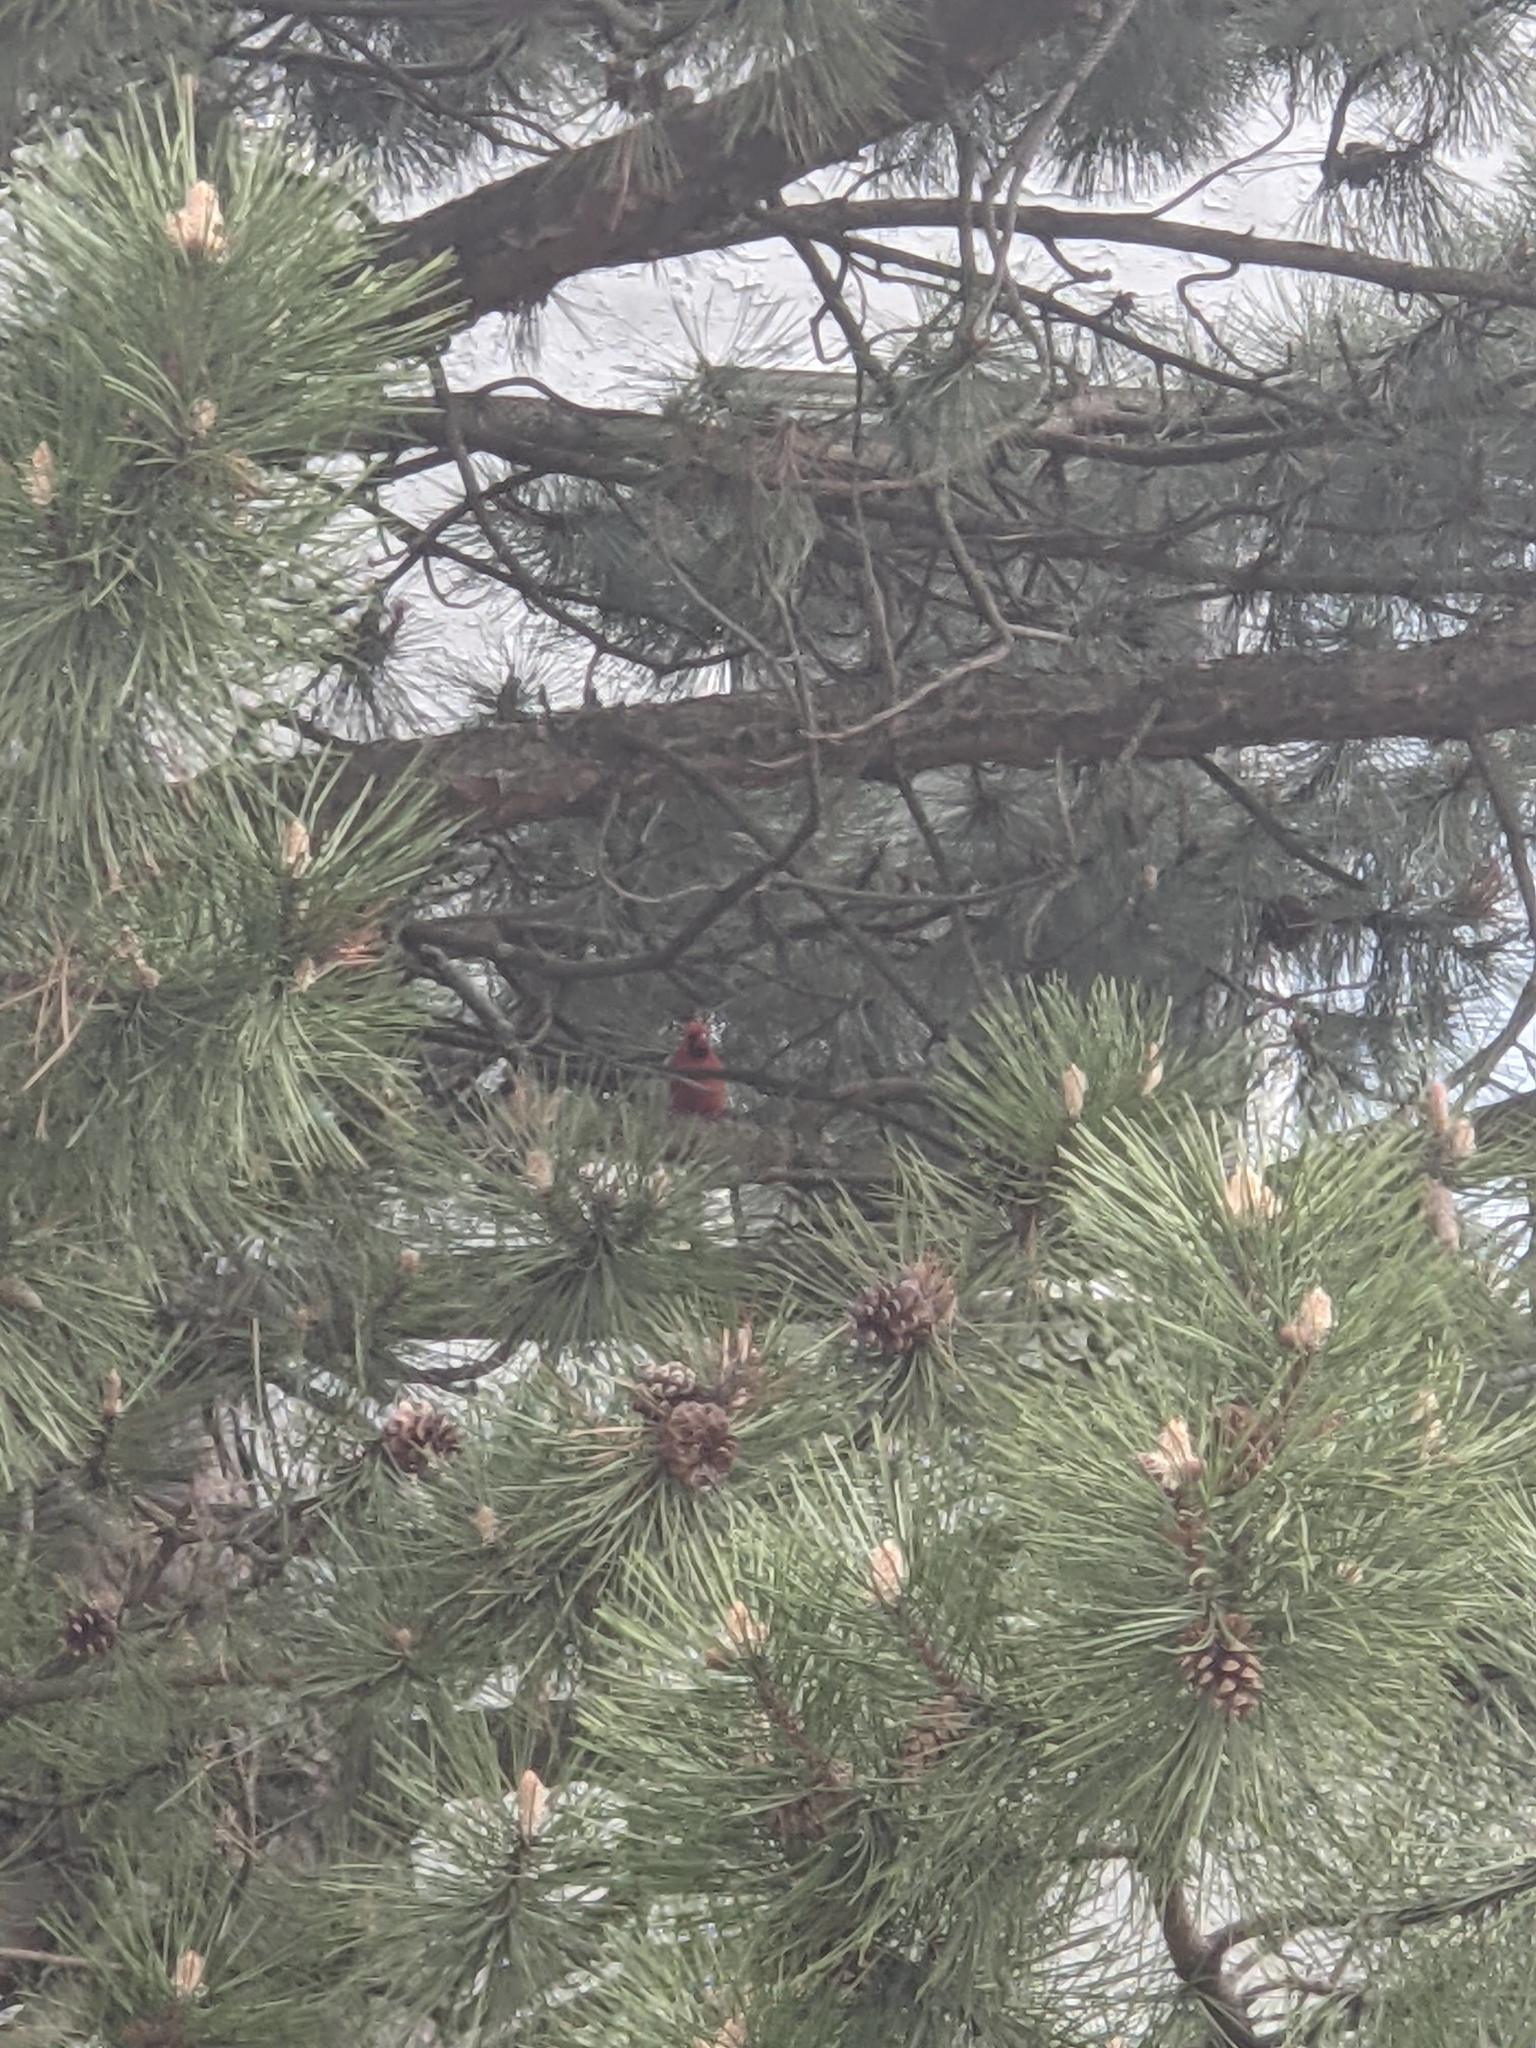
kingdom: Animalia
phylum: Chordata
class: Aves
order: Passeriformes
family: Cardinalidae
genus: Cardinalis
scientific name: Cardinalis cardinalis
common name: Northern cardinal
